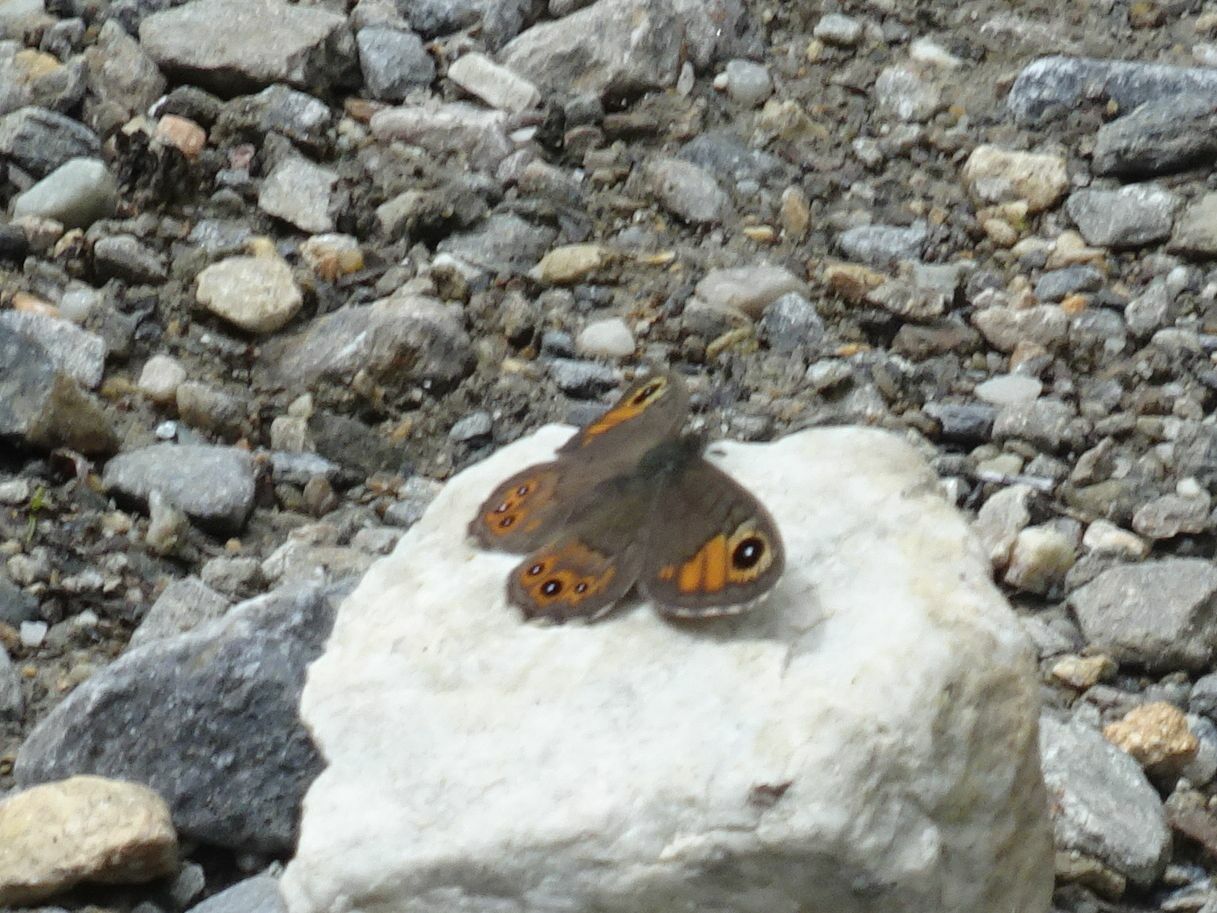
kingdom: Animalia
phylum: Arthropoda
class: Insecta
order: Lepidoptera
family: Nymphalidae
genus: Pararge
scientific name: Pararge petropolitana
